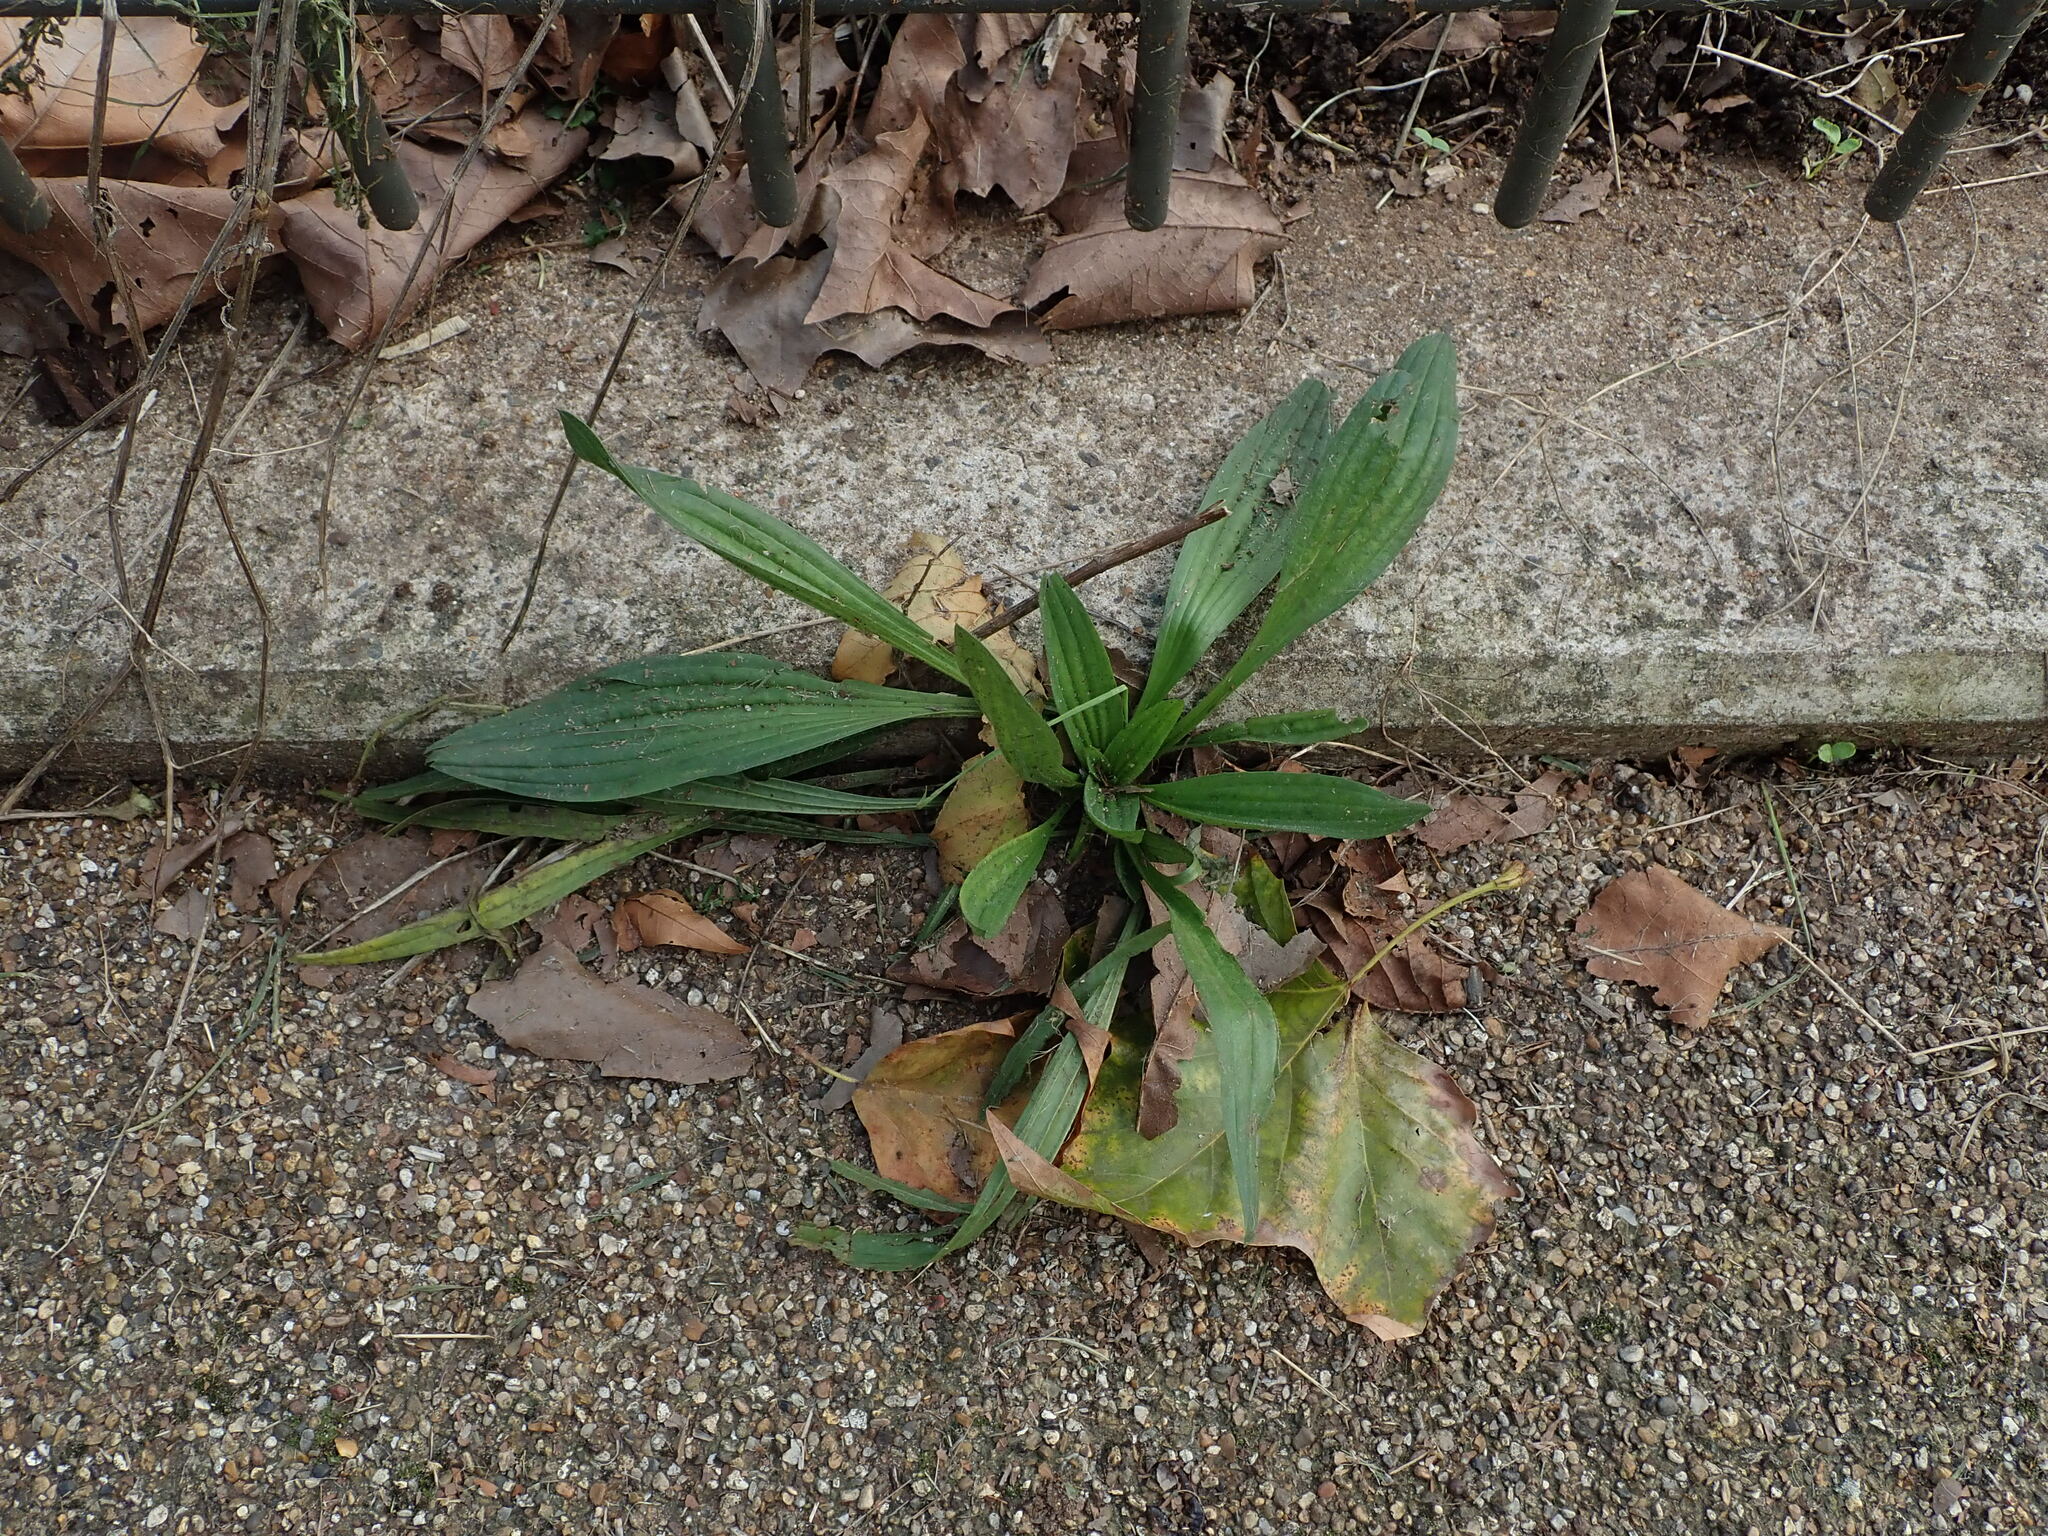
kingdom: Plantae
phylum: Tracheophyta
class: Magnoliopsida
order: Lamiales
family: Plantaginaceae
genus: Plantago
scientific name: Plantago lanceolata
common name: Ribwort plantain
